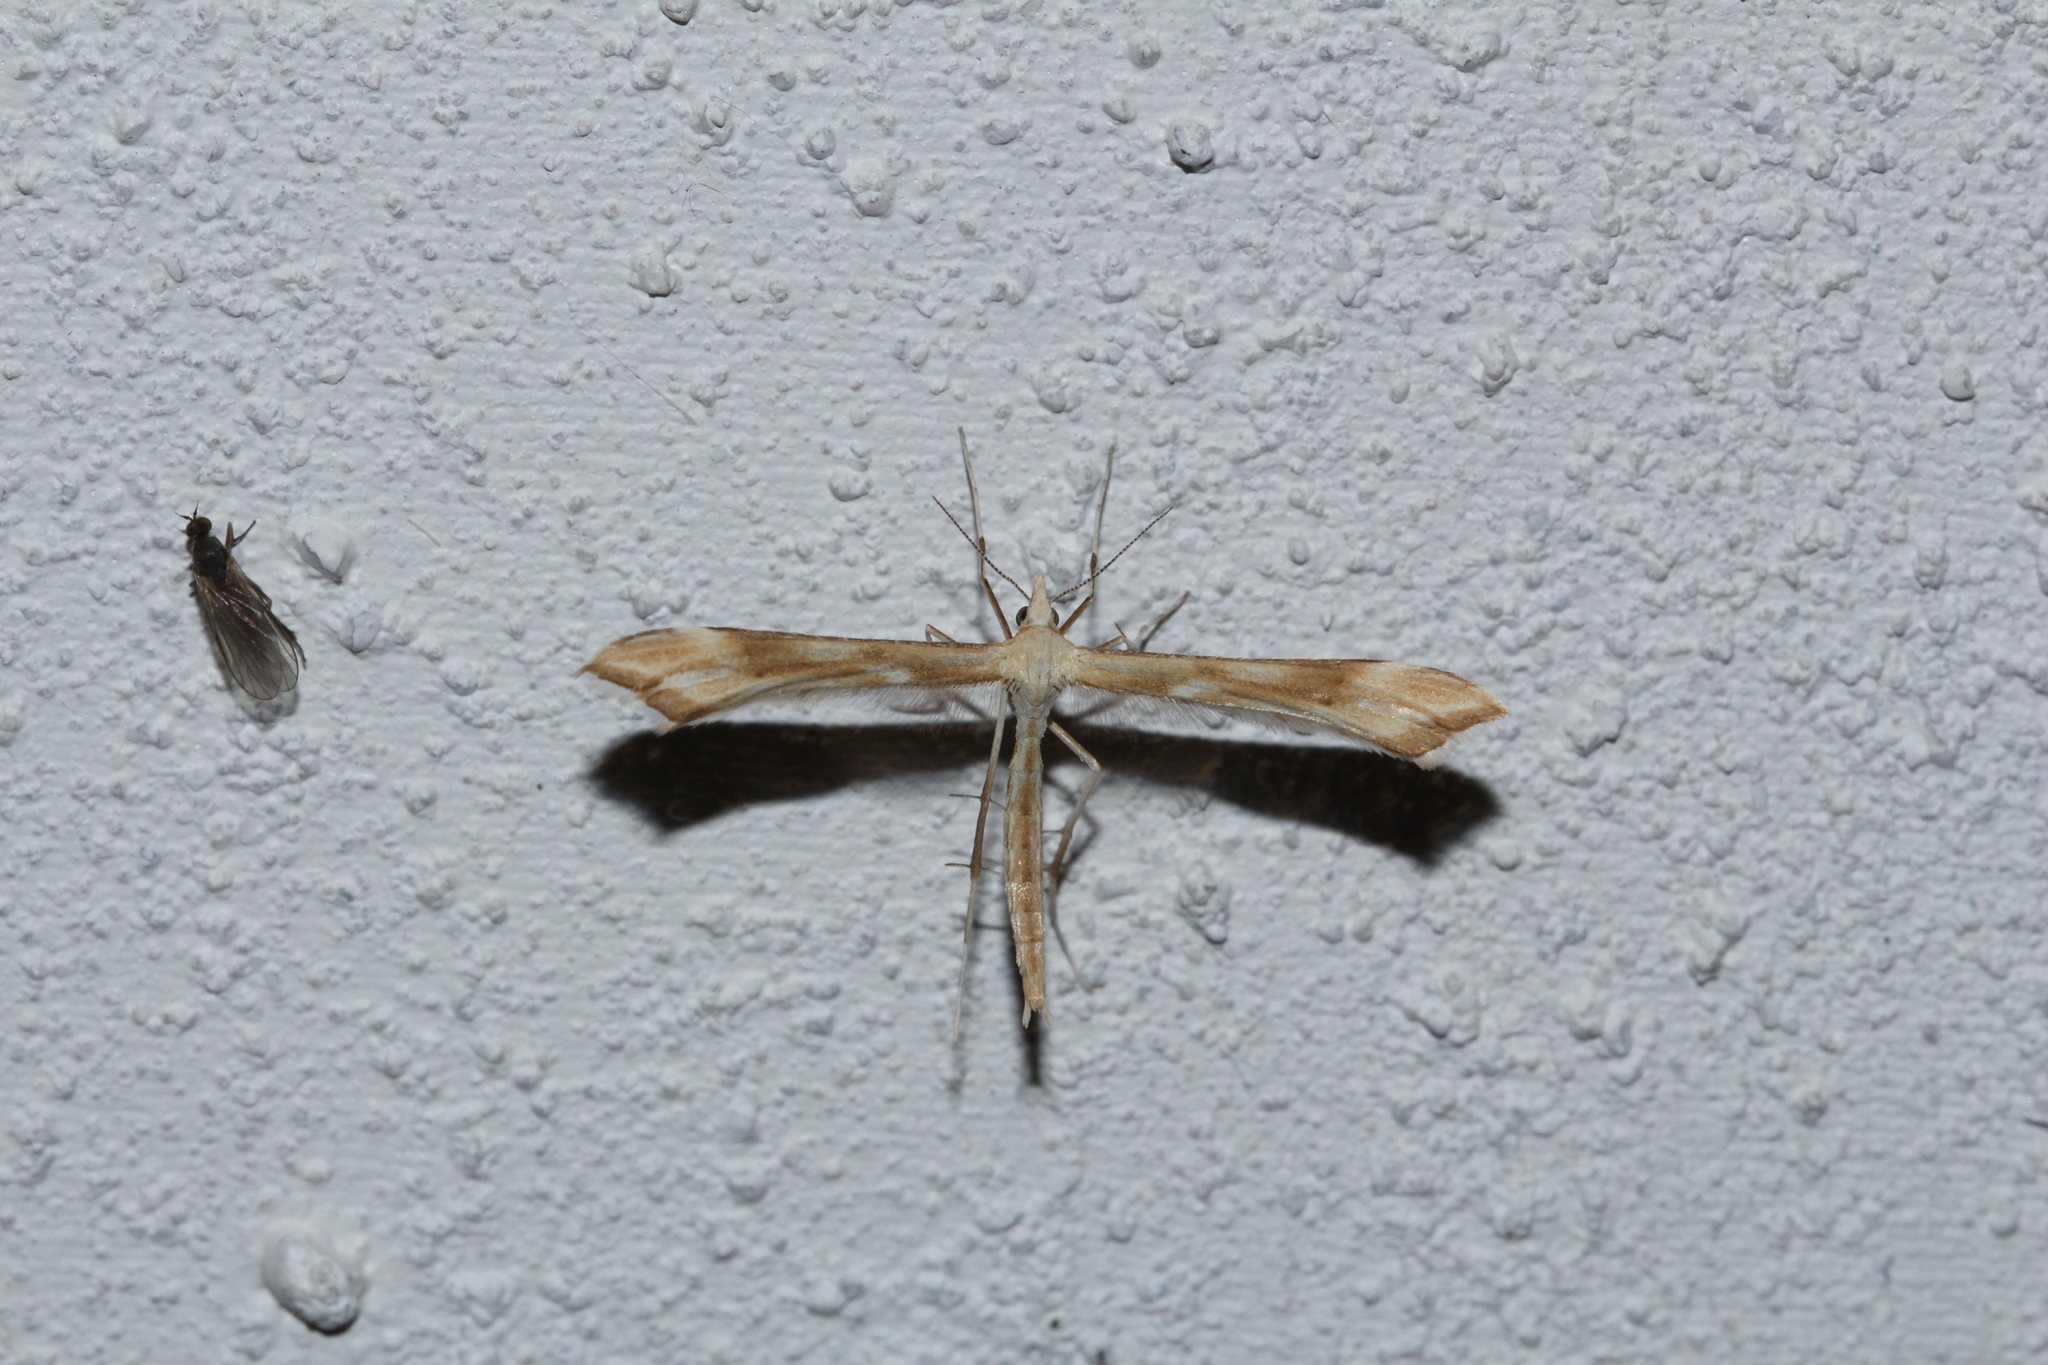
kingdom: Animalia
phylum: Arthropoda
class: Insecta
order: Lepidoptera
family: Pterophoridae
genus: Gillmeria
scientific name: Gillmeria pallidactyla
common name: Yarrow plume
